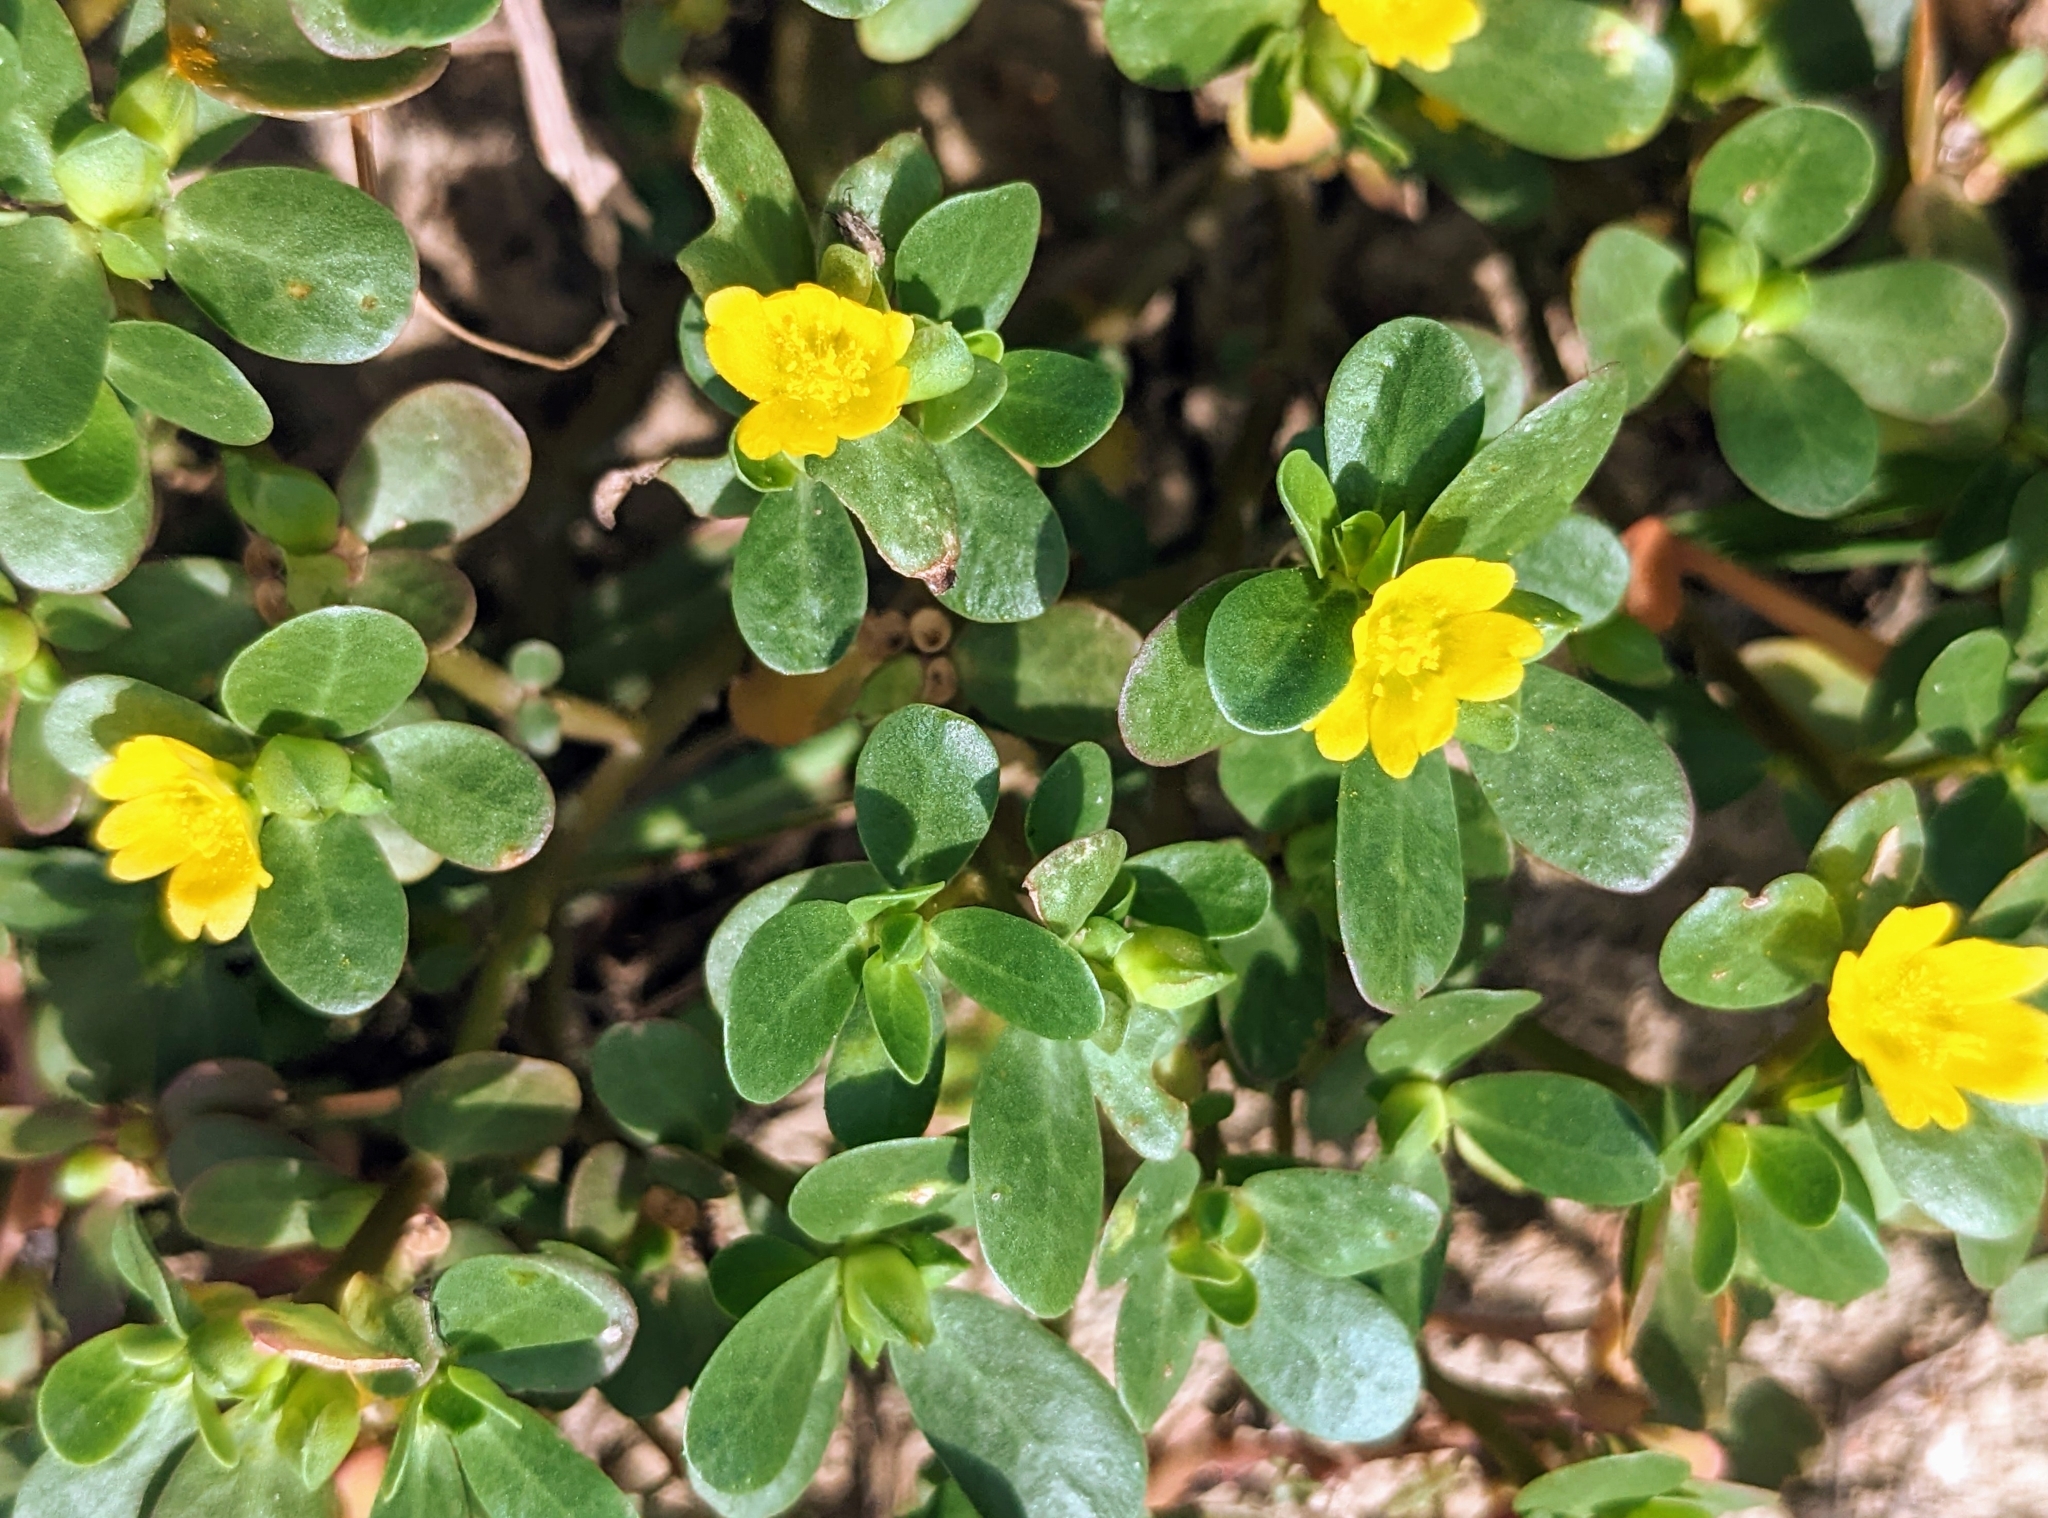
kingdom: Plantae
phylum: Tracheophyta
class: Magnoliopsida
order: Caryophyllales
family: Portulacaceae
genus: Portulaca
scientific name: Portulaca oleracea
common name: Common purslane
